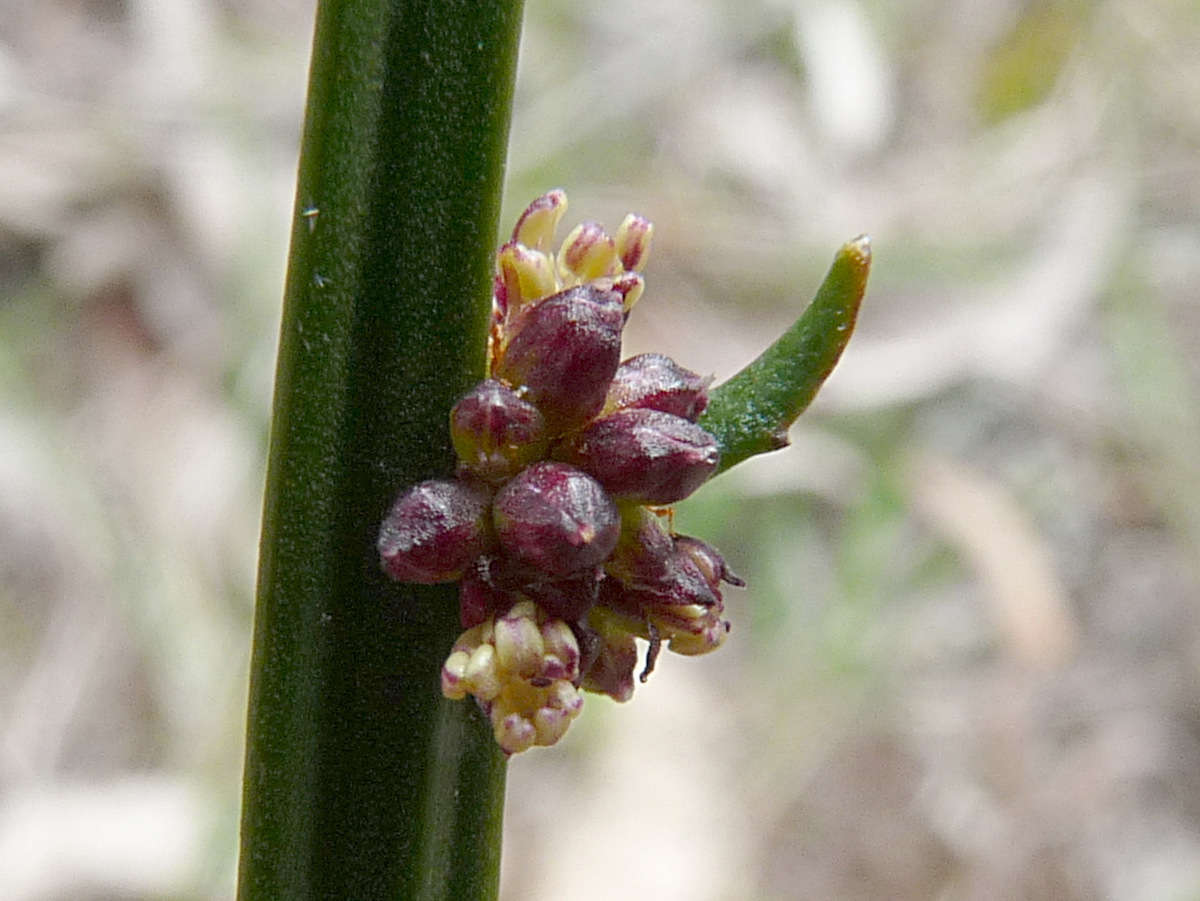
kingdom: Plantae
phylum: Tracheophyta
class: Magnoliopsida
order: Malpighiales
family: Euphorbiaceae
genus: Amperea
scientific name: Amperea xiphoclada
